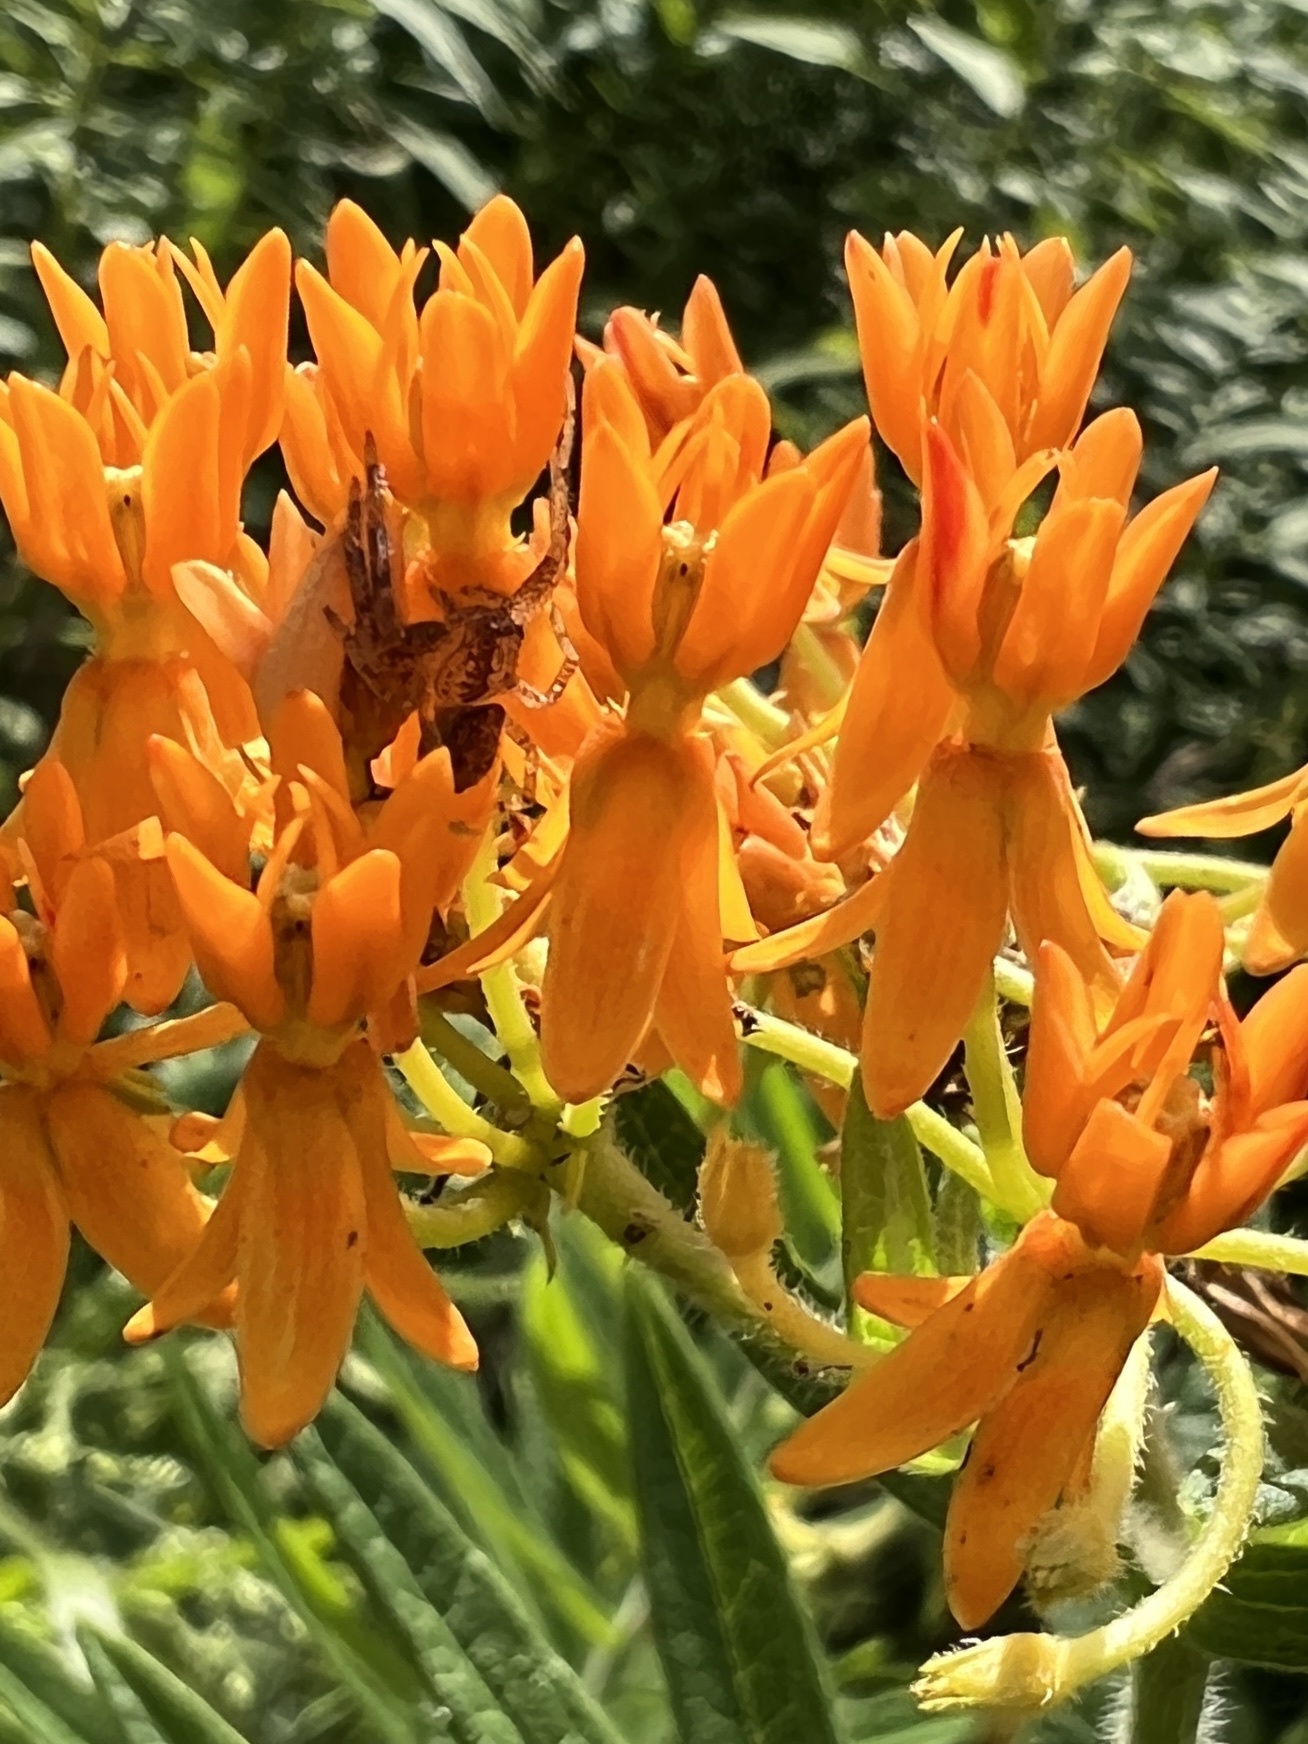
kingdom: Plantae
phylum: Tracheophyta
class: Magnoliopsida
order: Gentianales
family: Apocynaceae
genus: Asclepias
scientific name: Asclepias tuberosa
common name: Butterfly milkweed
